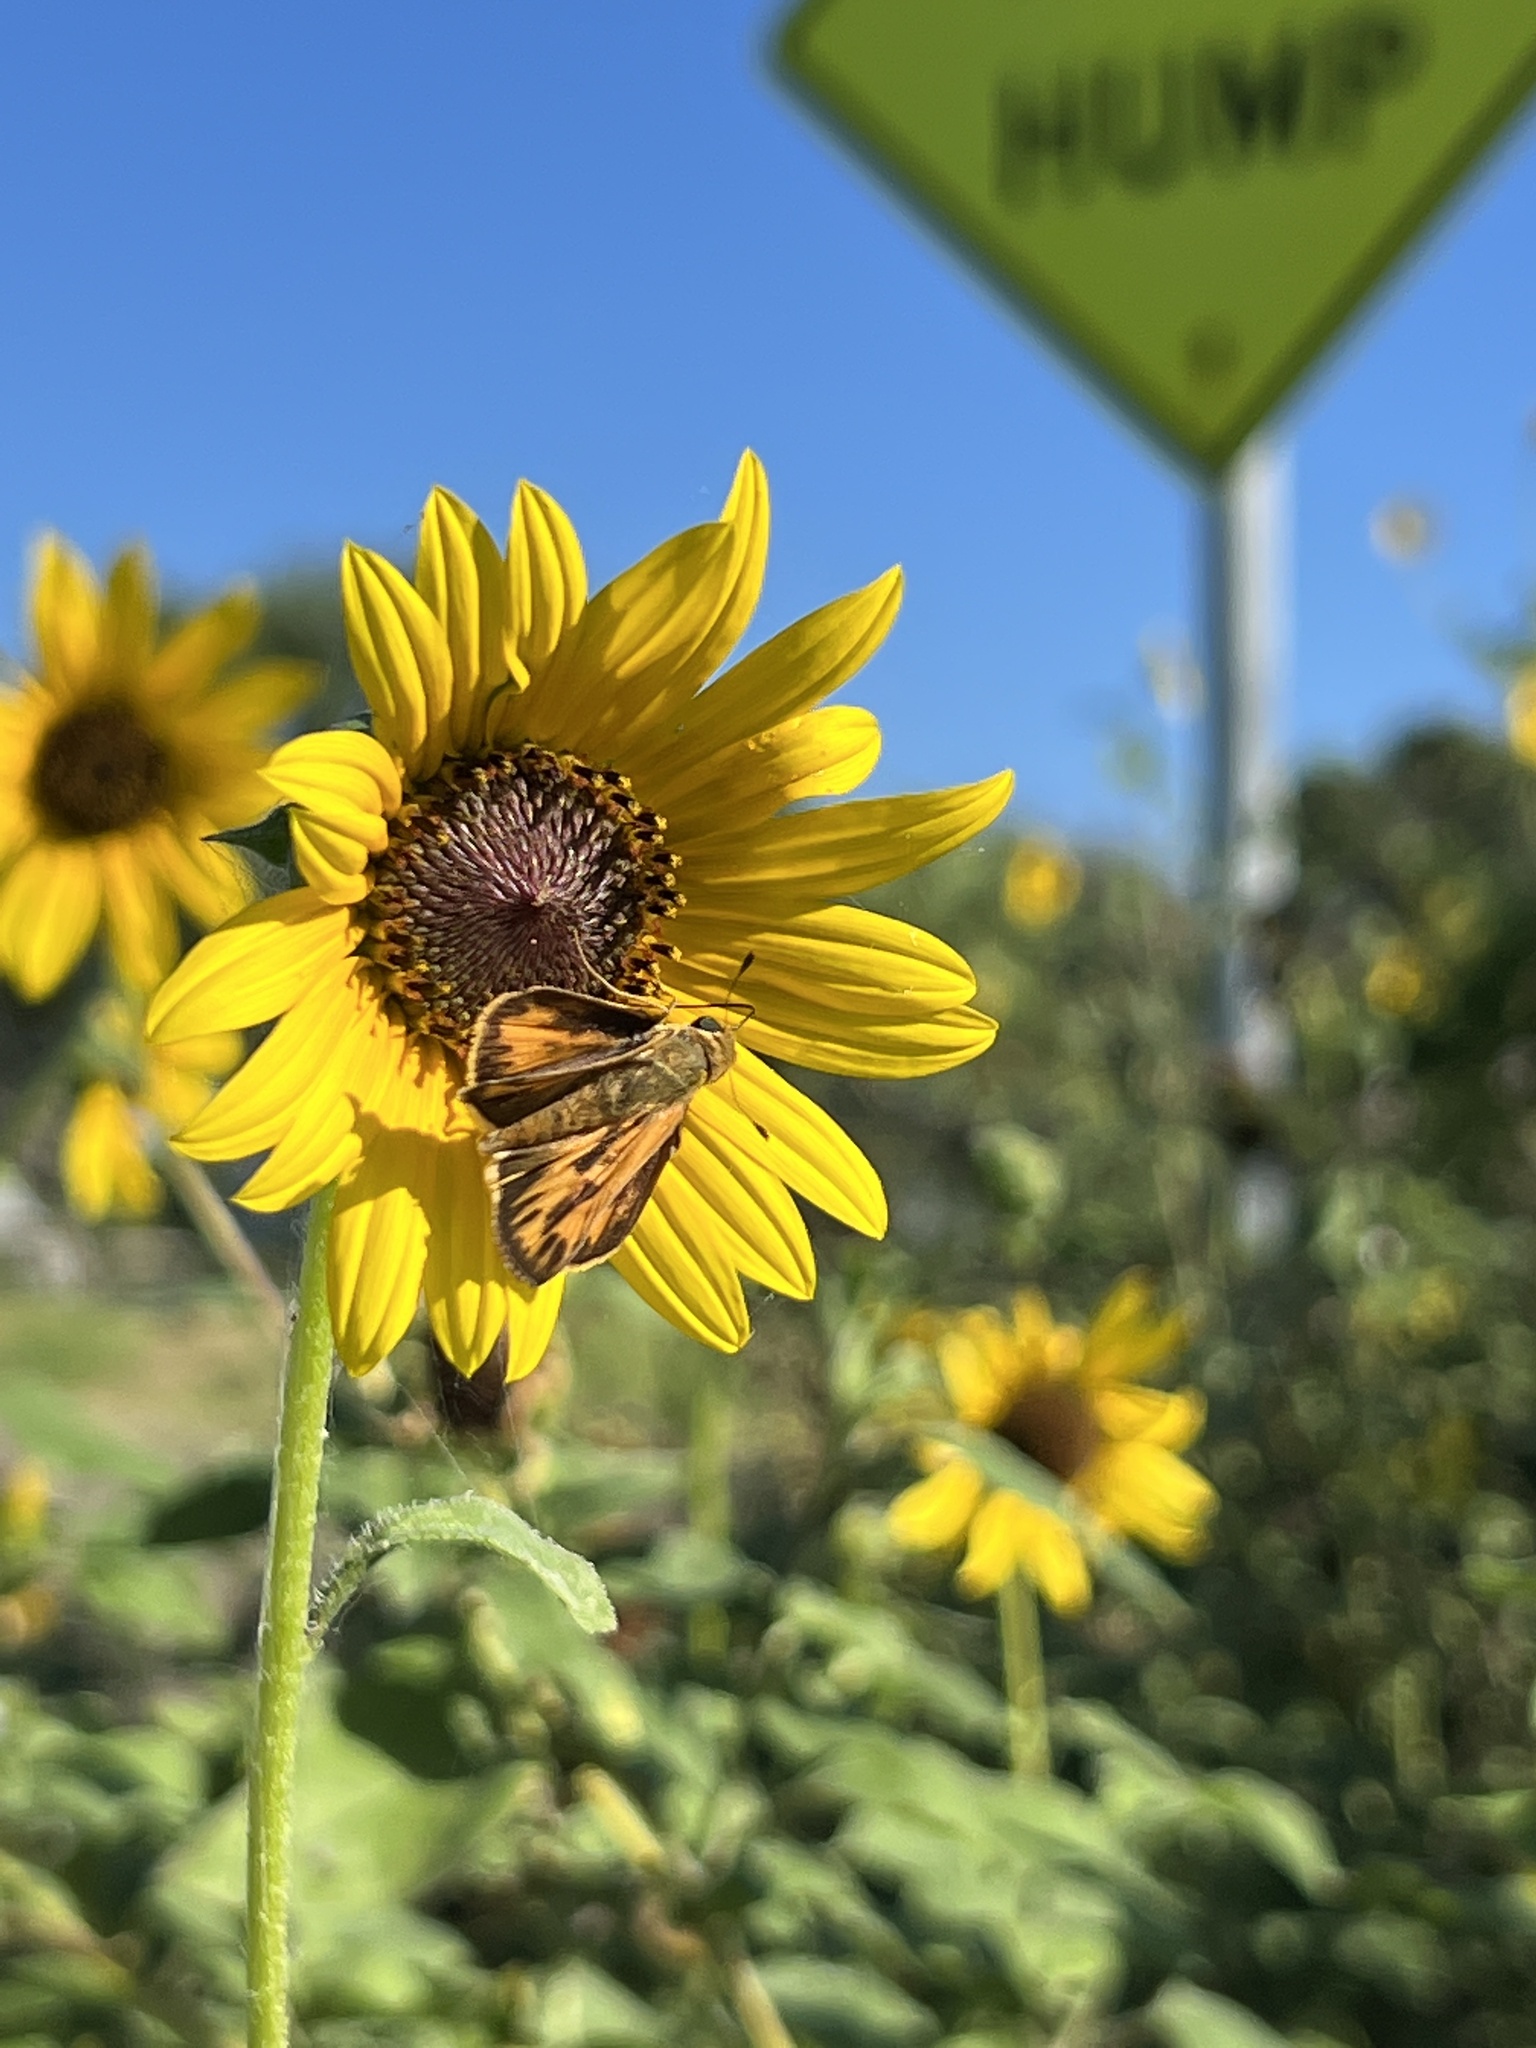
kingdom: Animalia
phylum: Arthropoda
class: Insecta
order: Lepidoptera
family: Hesperiidae
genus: Hylephila
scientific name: Hylephila phyleus
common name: Fiery skipper
